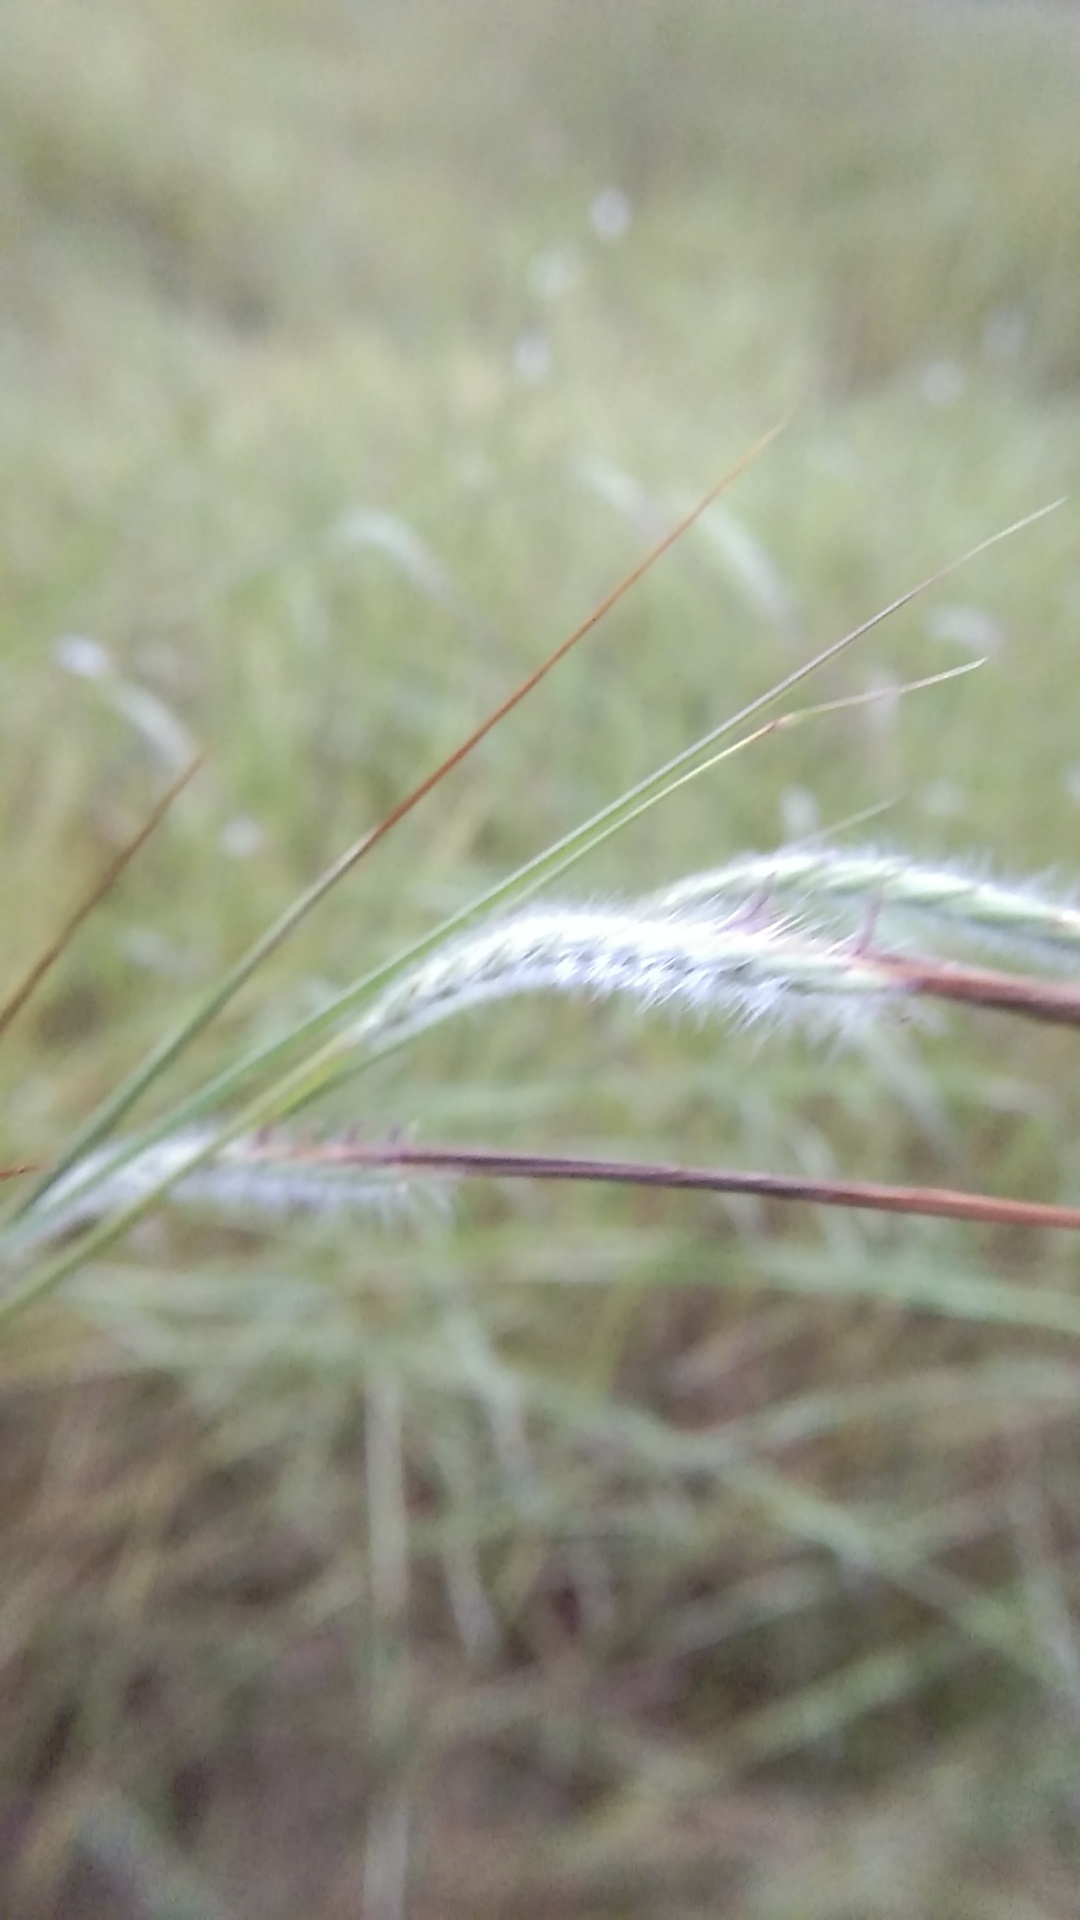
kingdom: Plantae
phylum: Tracheophyta
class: Liliopsida
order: Poales
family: Poaceae
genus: Heteropogon
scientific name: Heteropogon contortus
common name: Tanglehead
